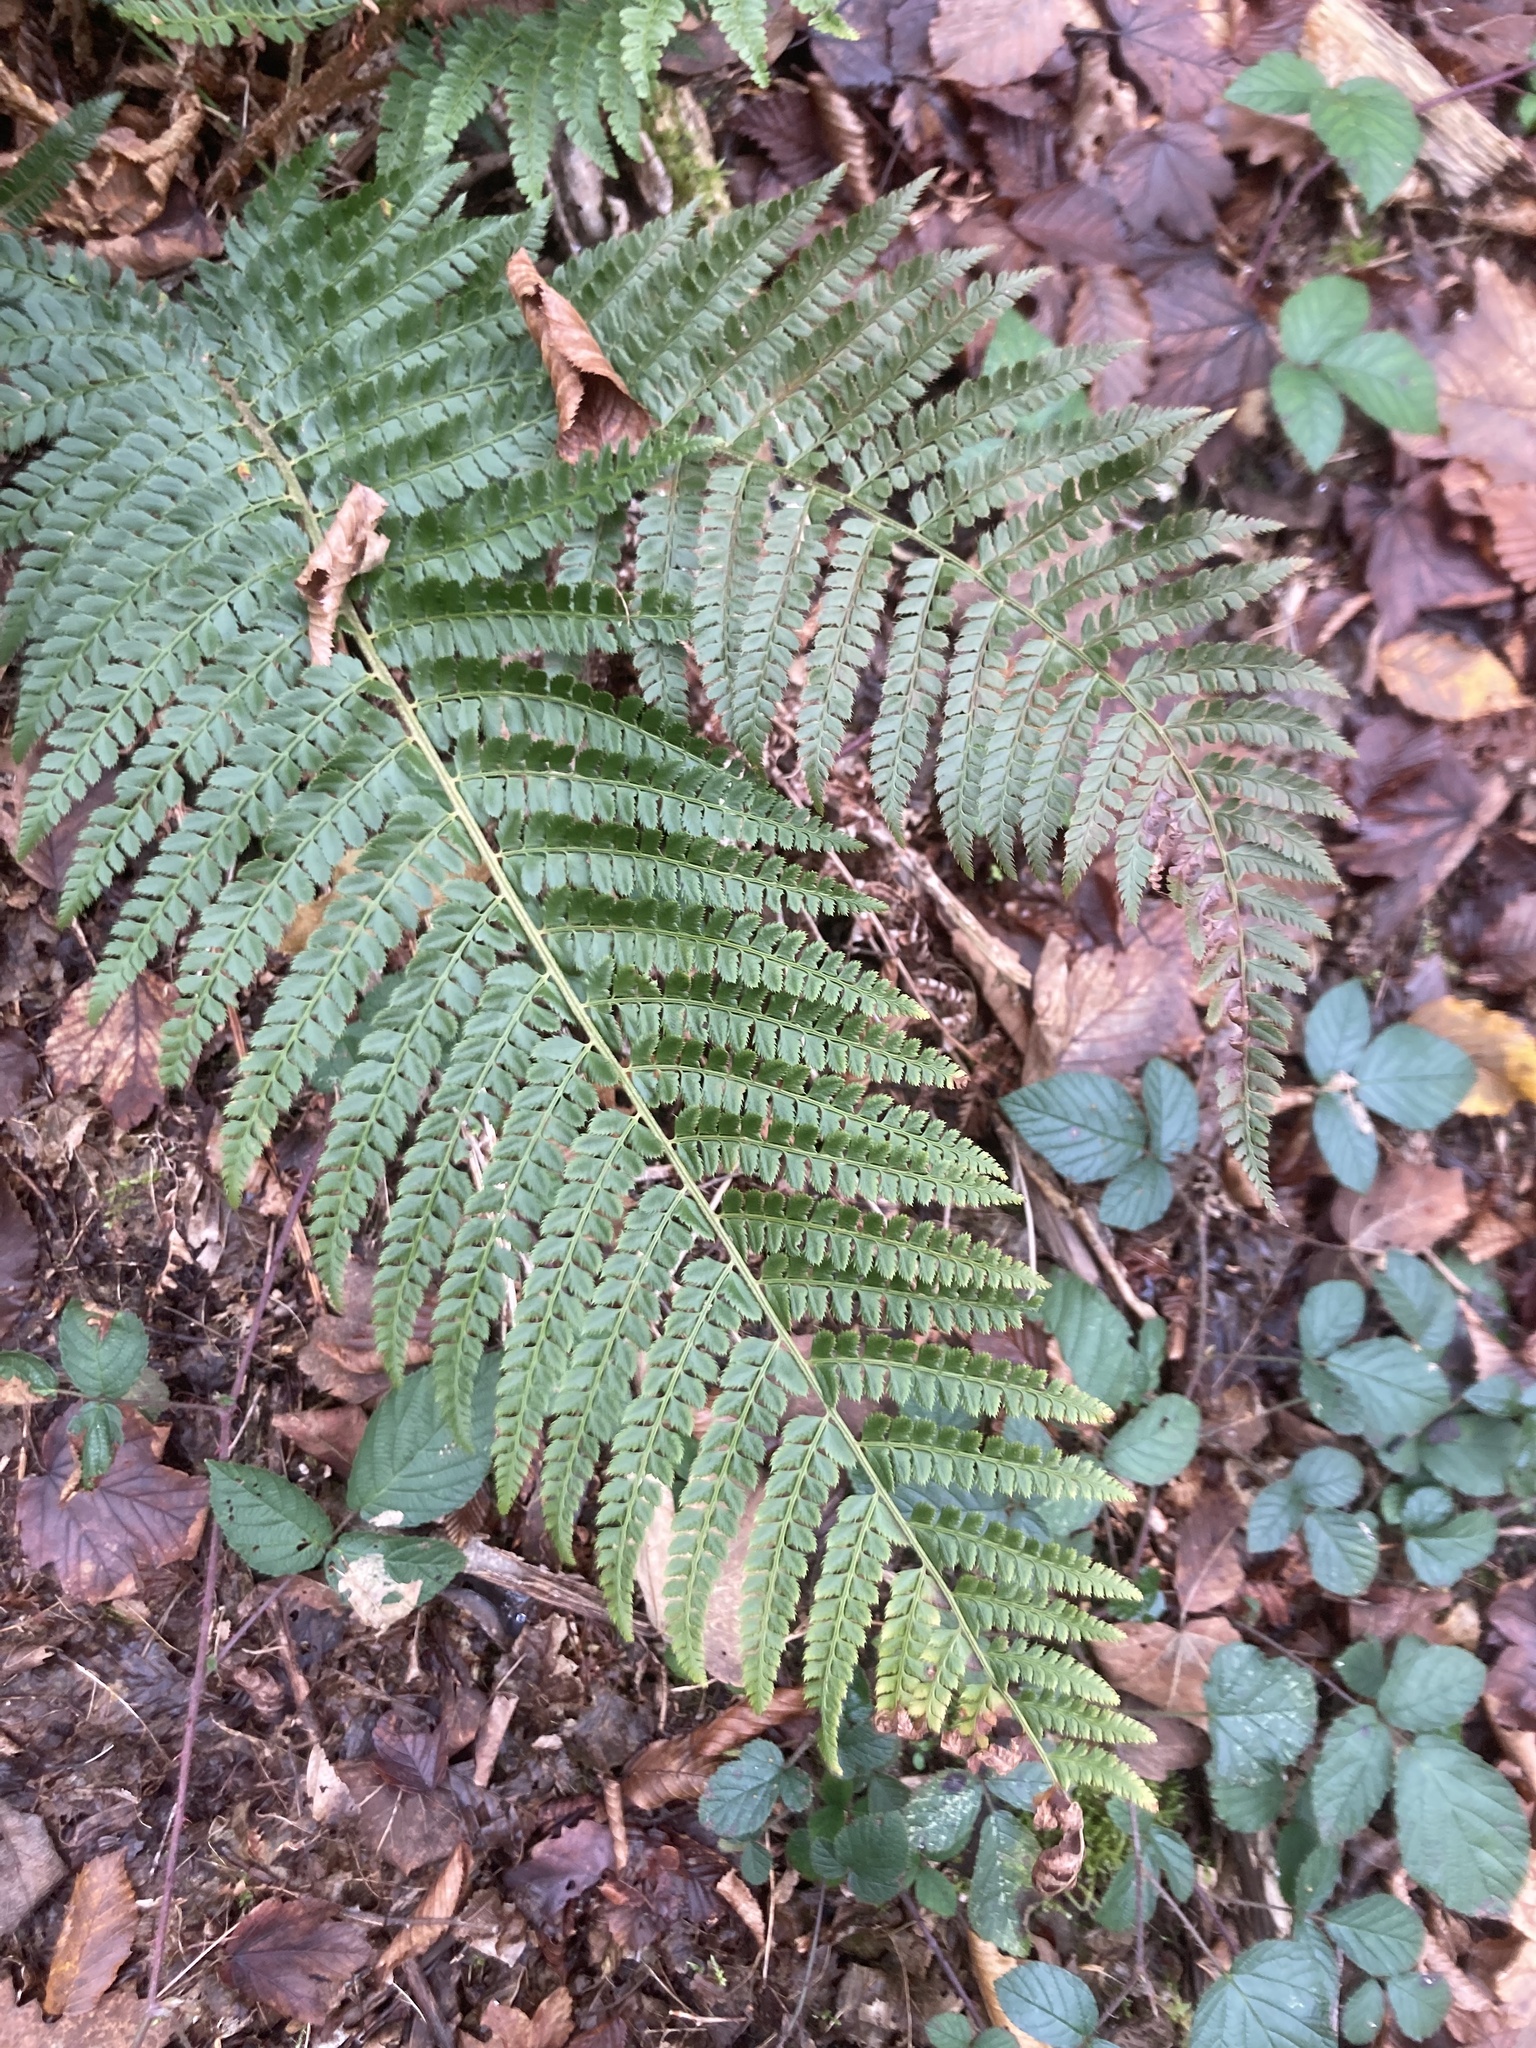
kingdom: Plantae
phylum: Tracheophyta
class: Polypodiopsida
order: Polypodiales
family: Dryopteridaceae
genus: Polystichum
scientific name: Polystichum setiferum
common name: Soft shield-fern
